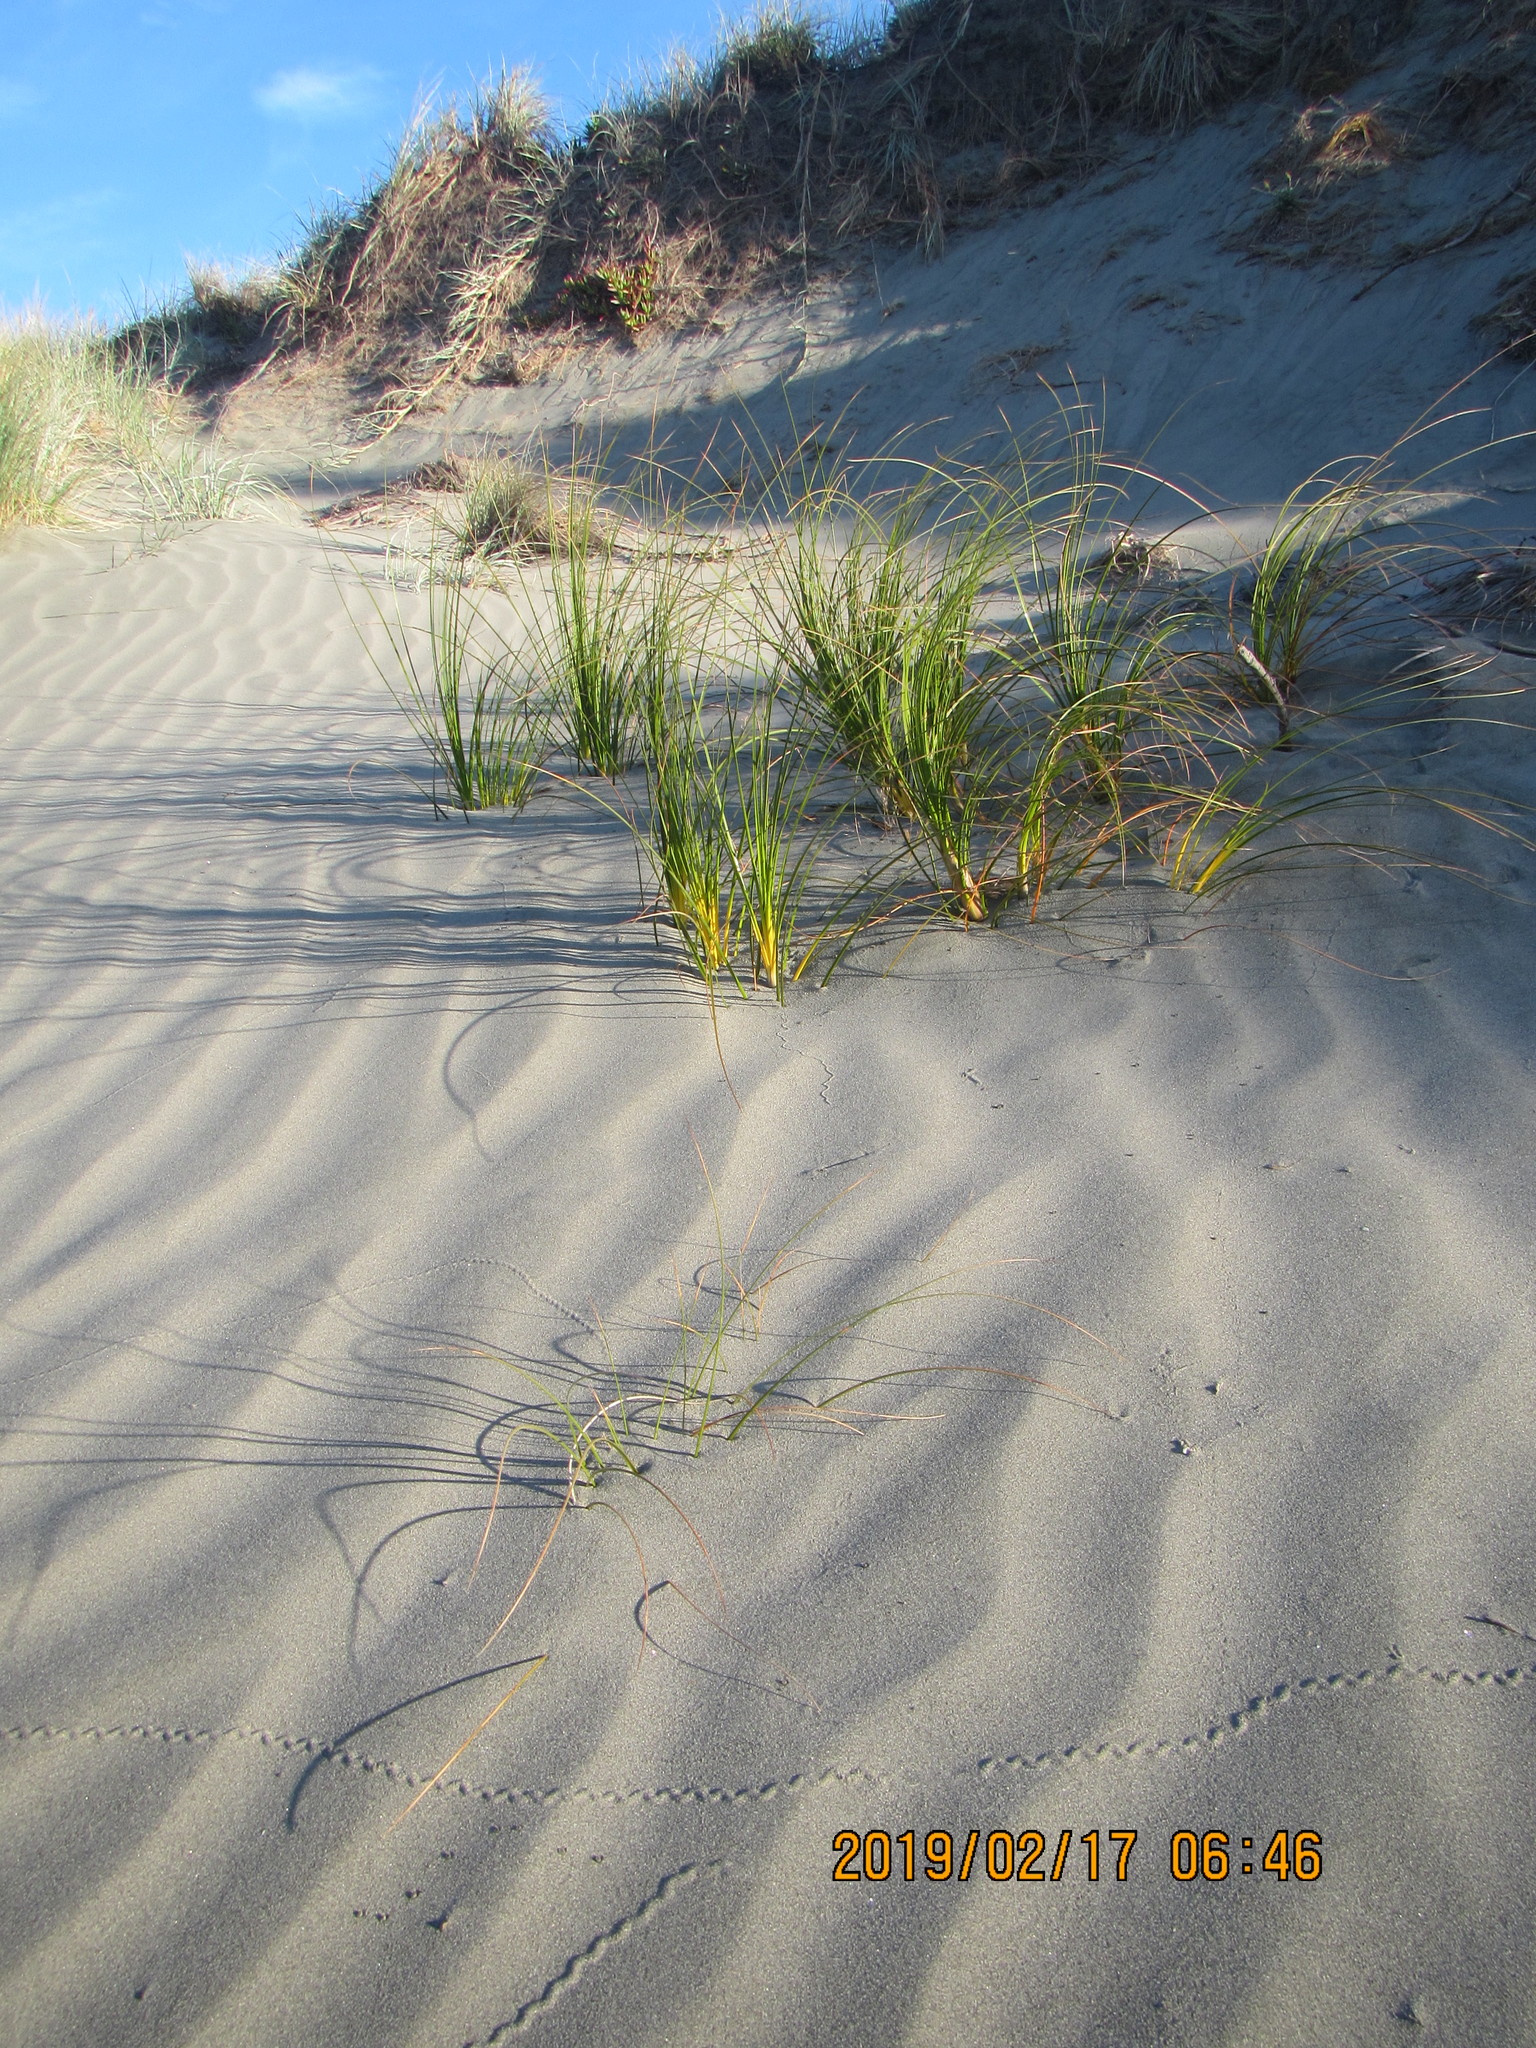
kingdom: Plantae
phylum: Tracheophyta
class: Liliopsida
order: Poales
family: Cyperaceae
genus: Ficinia
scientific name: Ficinia spiralis
